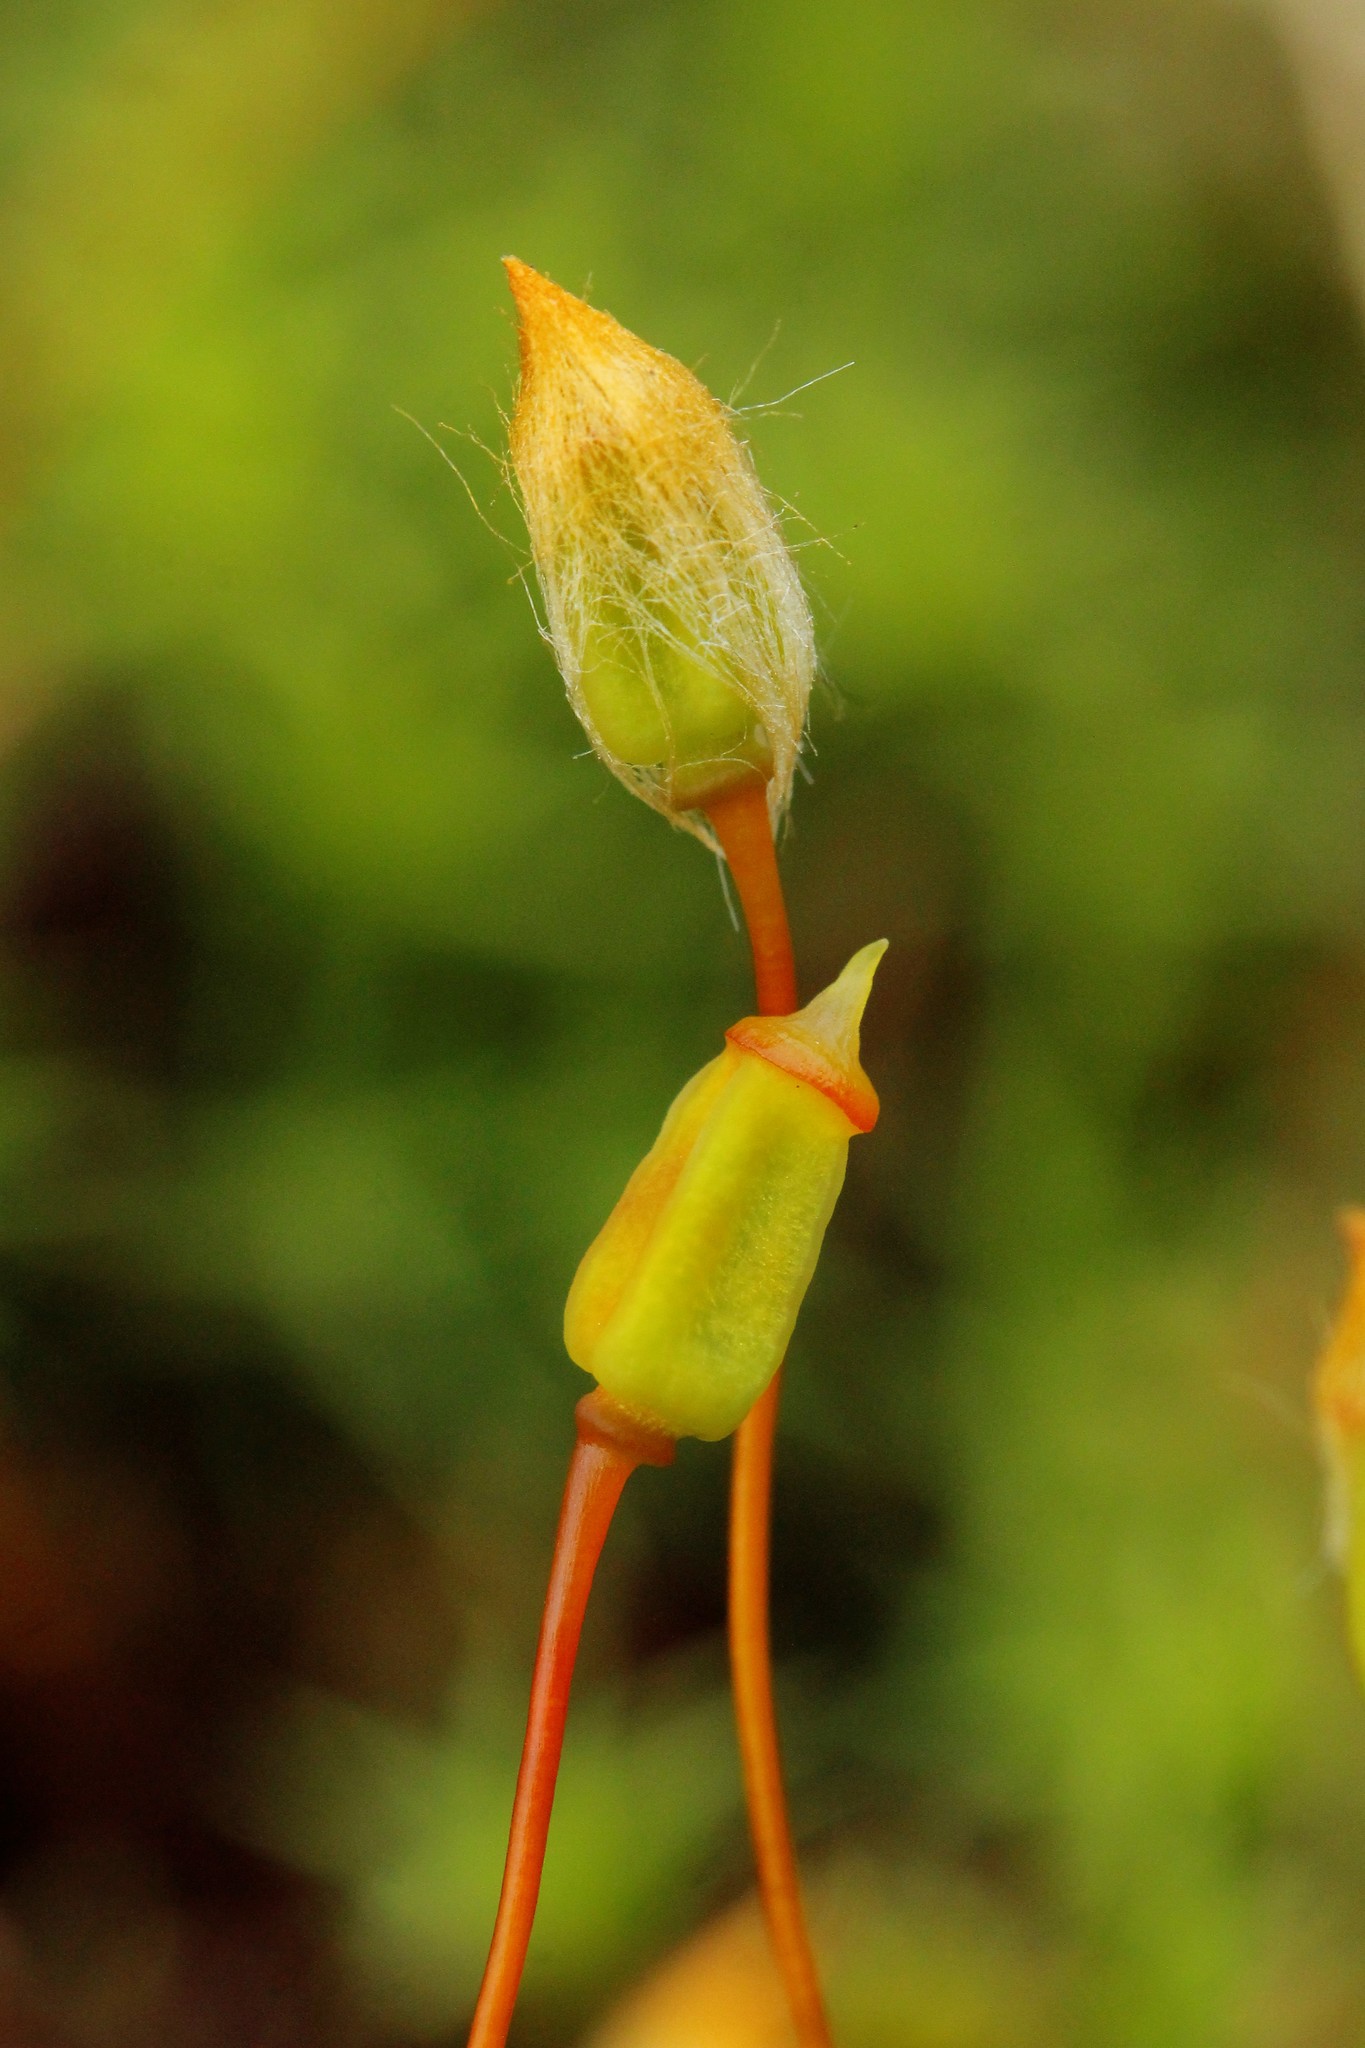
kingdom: Plantae
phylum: Bryophyta
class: Polytrichopsida
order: Polytrichales
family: Polytrichaceae
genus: Polytrichum
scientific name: Polytrichum commune
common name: Common haircap
